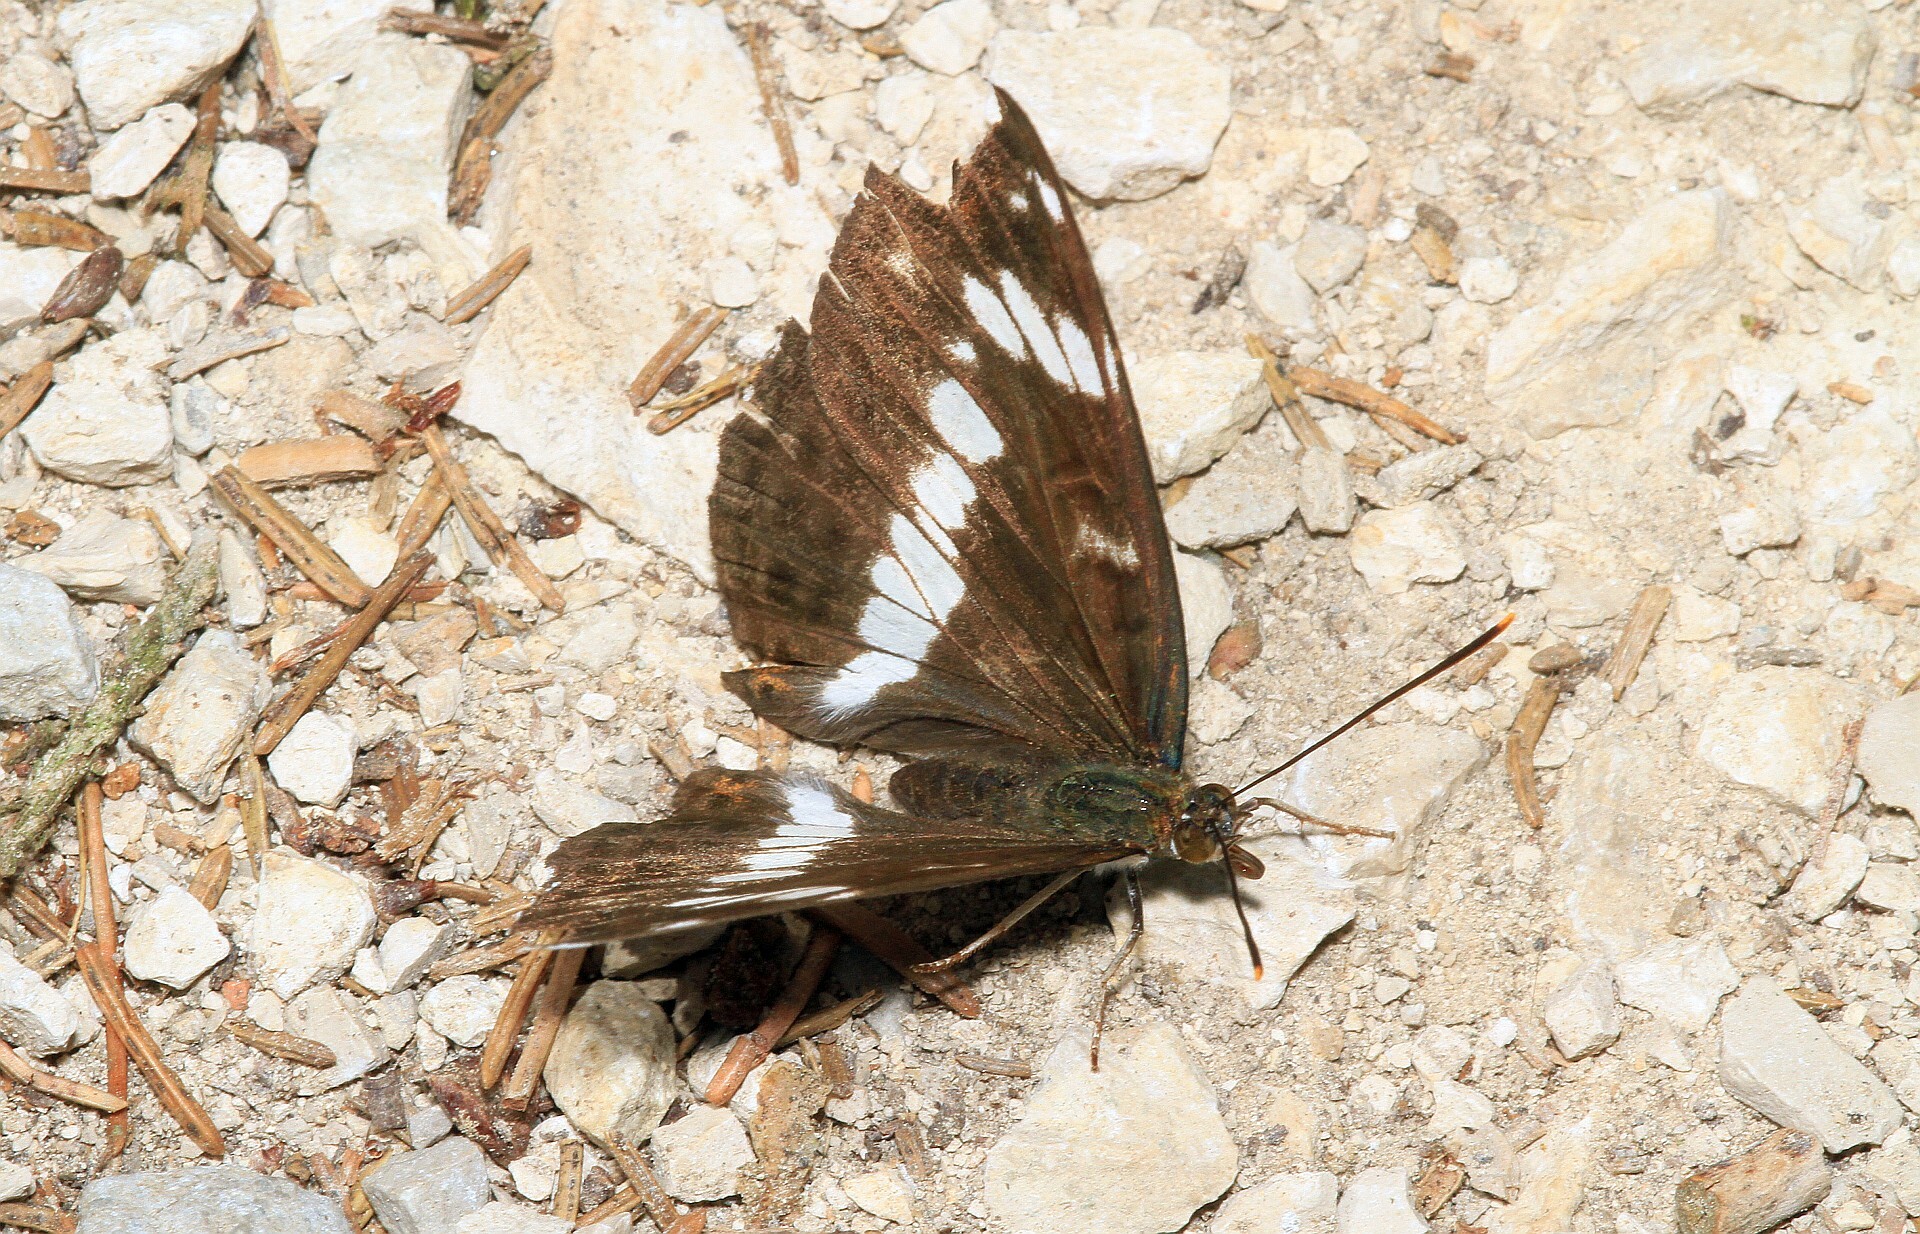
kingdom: Animalia
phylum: Arthropoda
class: Insecta
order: Lepidoptera
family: Nymphalidae
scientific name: Nymphalidae
